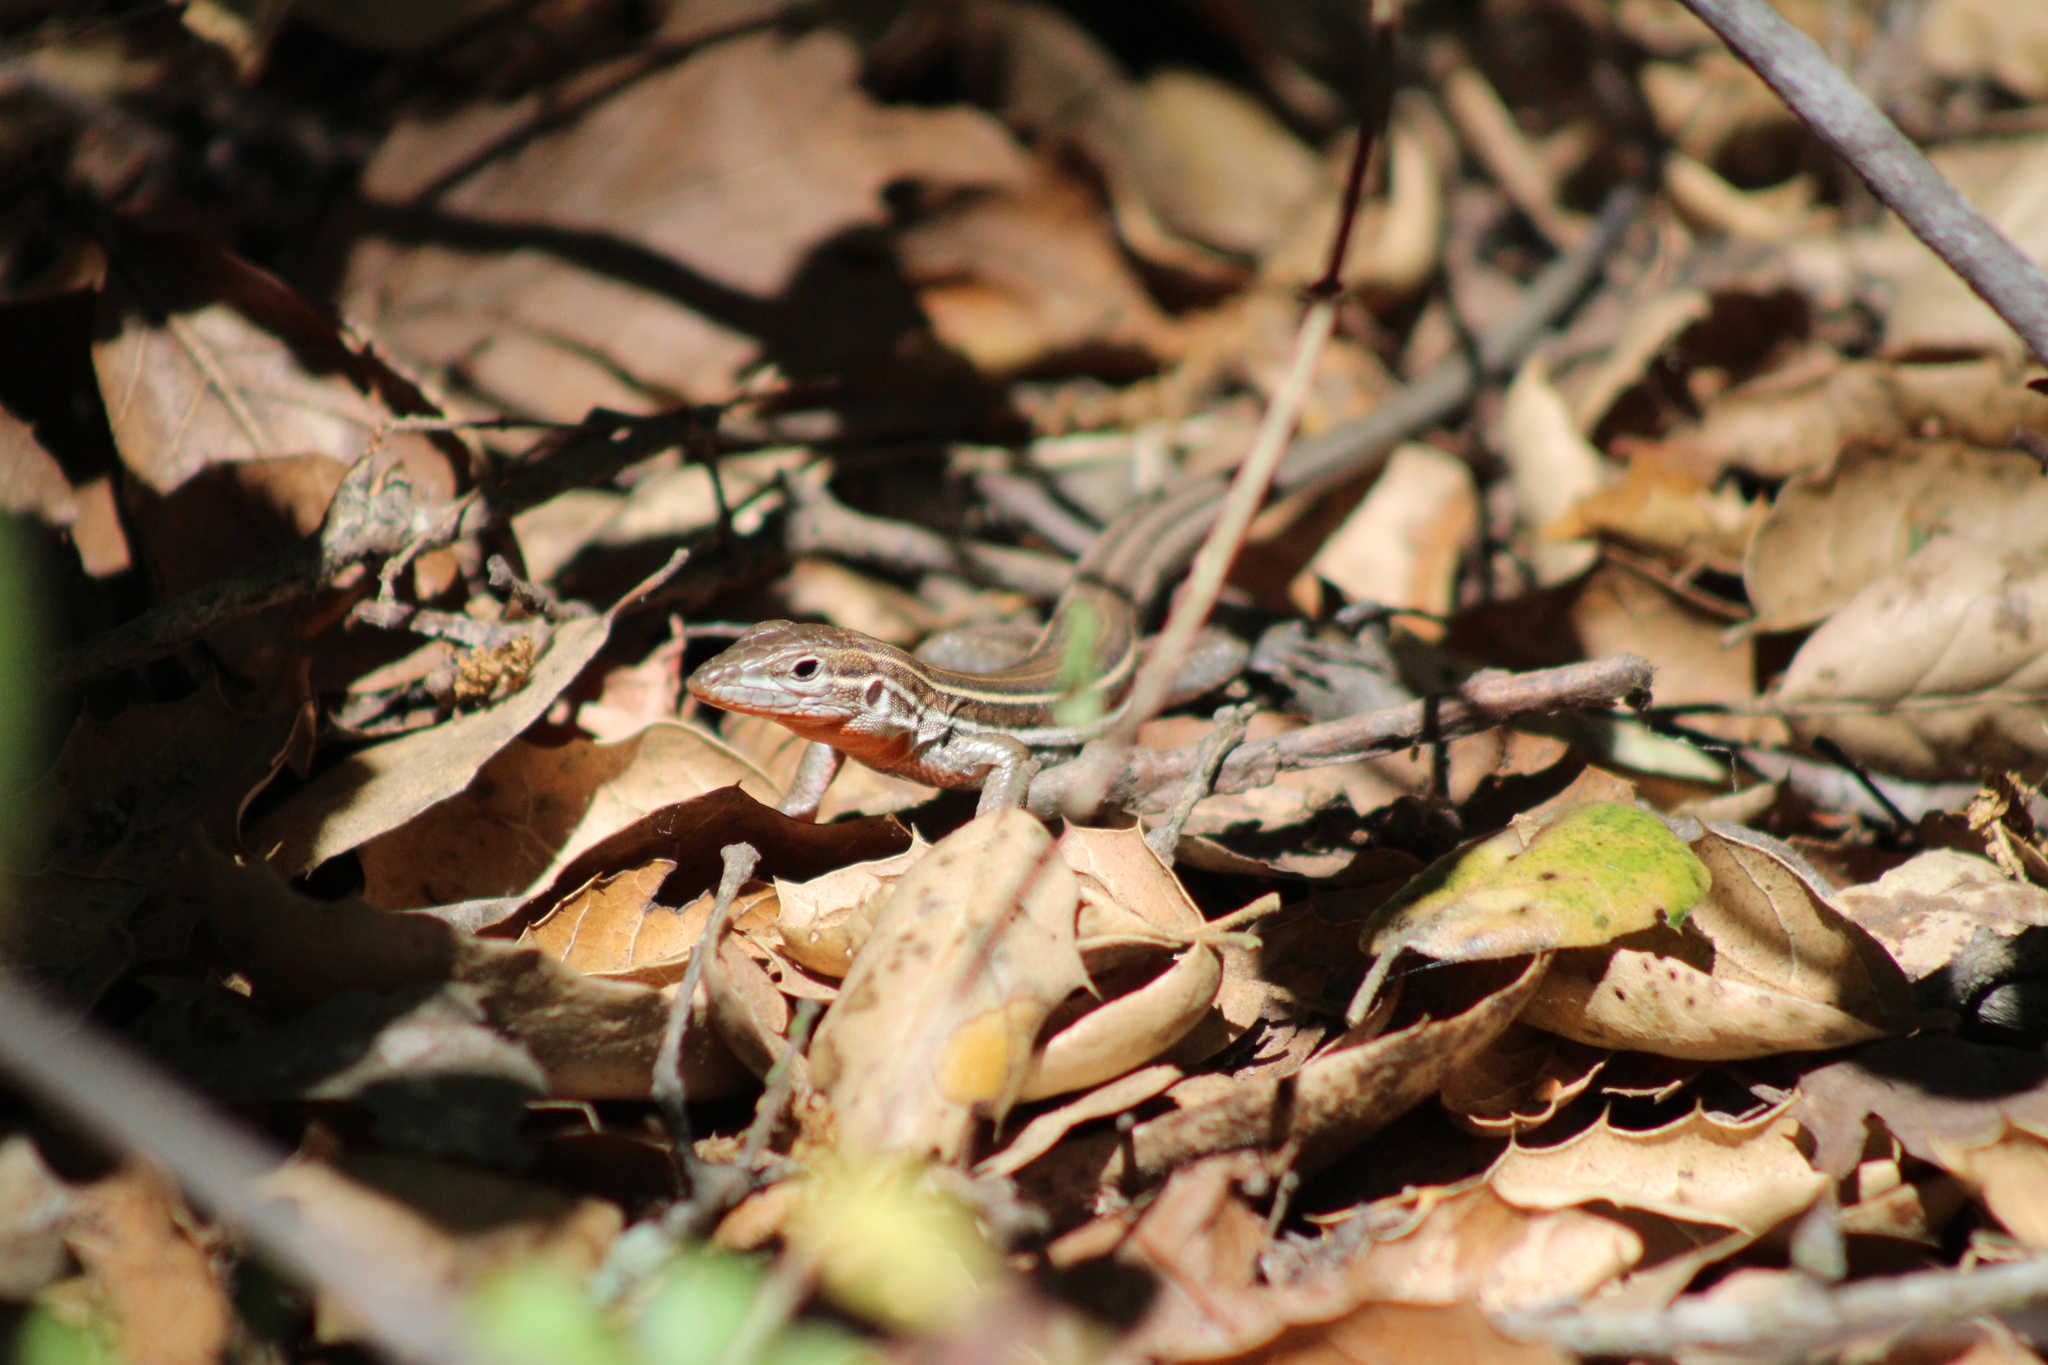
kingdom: Animalia
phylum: Chordata
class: Squamata
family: Teiidae
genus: Aspidoscelis
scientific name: Aspidoscelis hyperythrus
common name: Orange-throated race-runner
